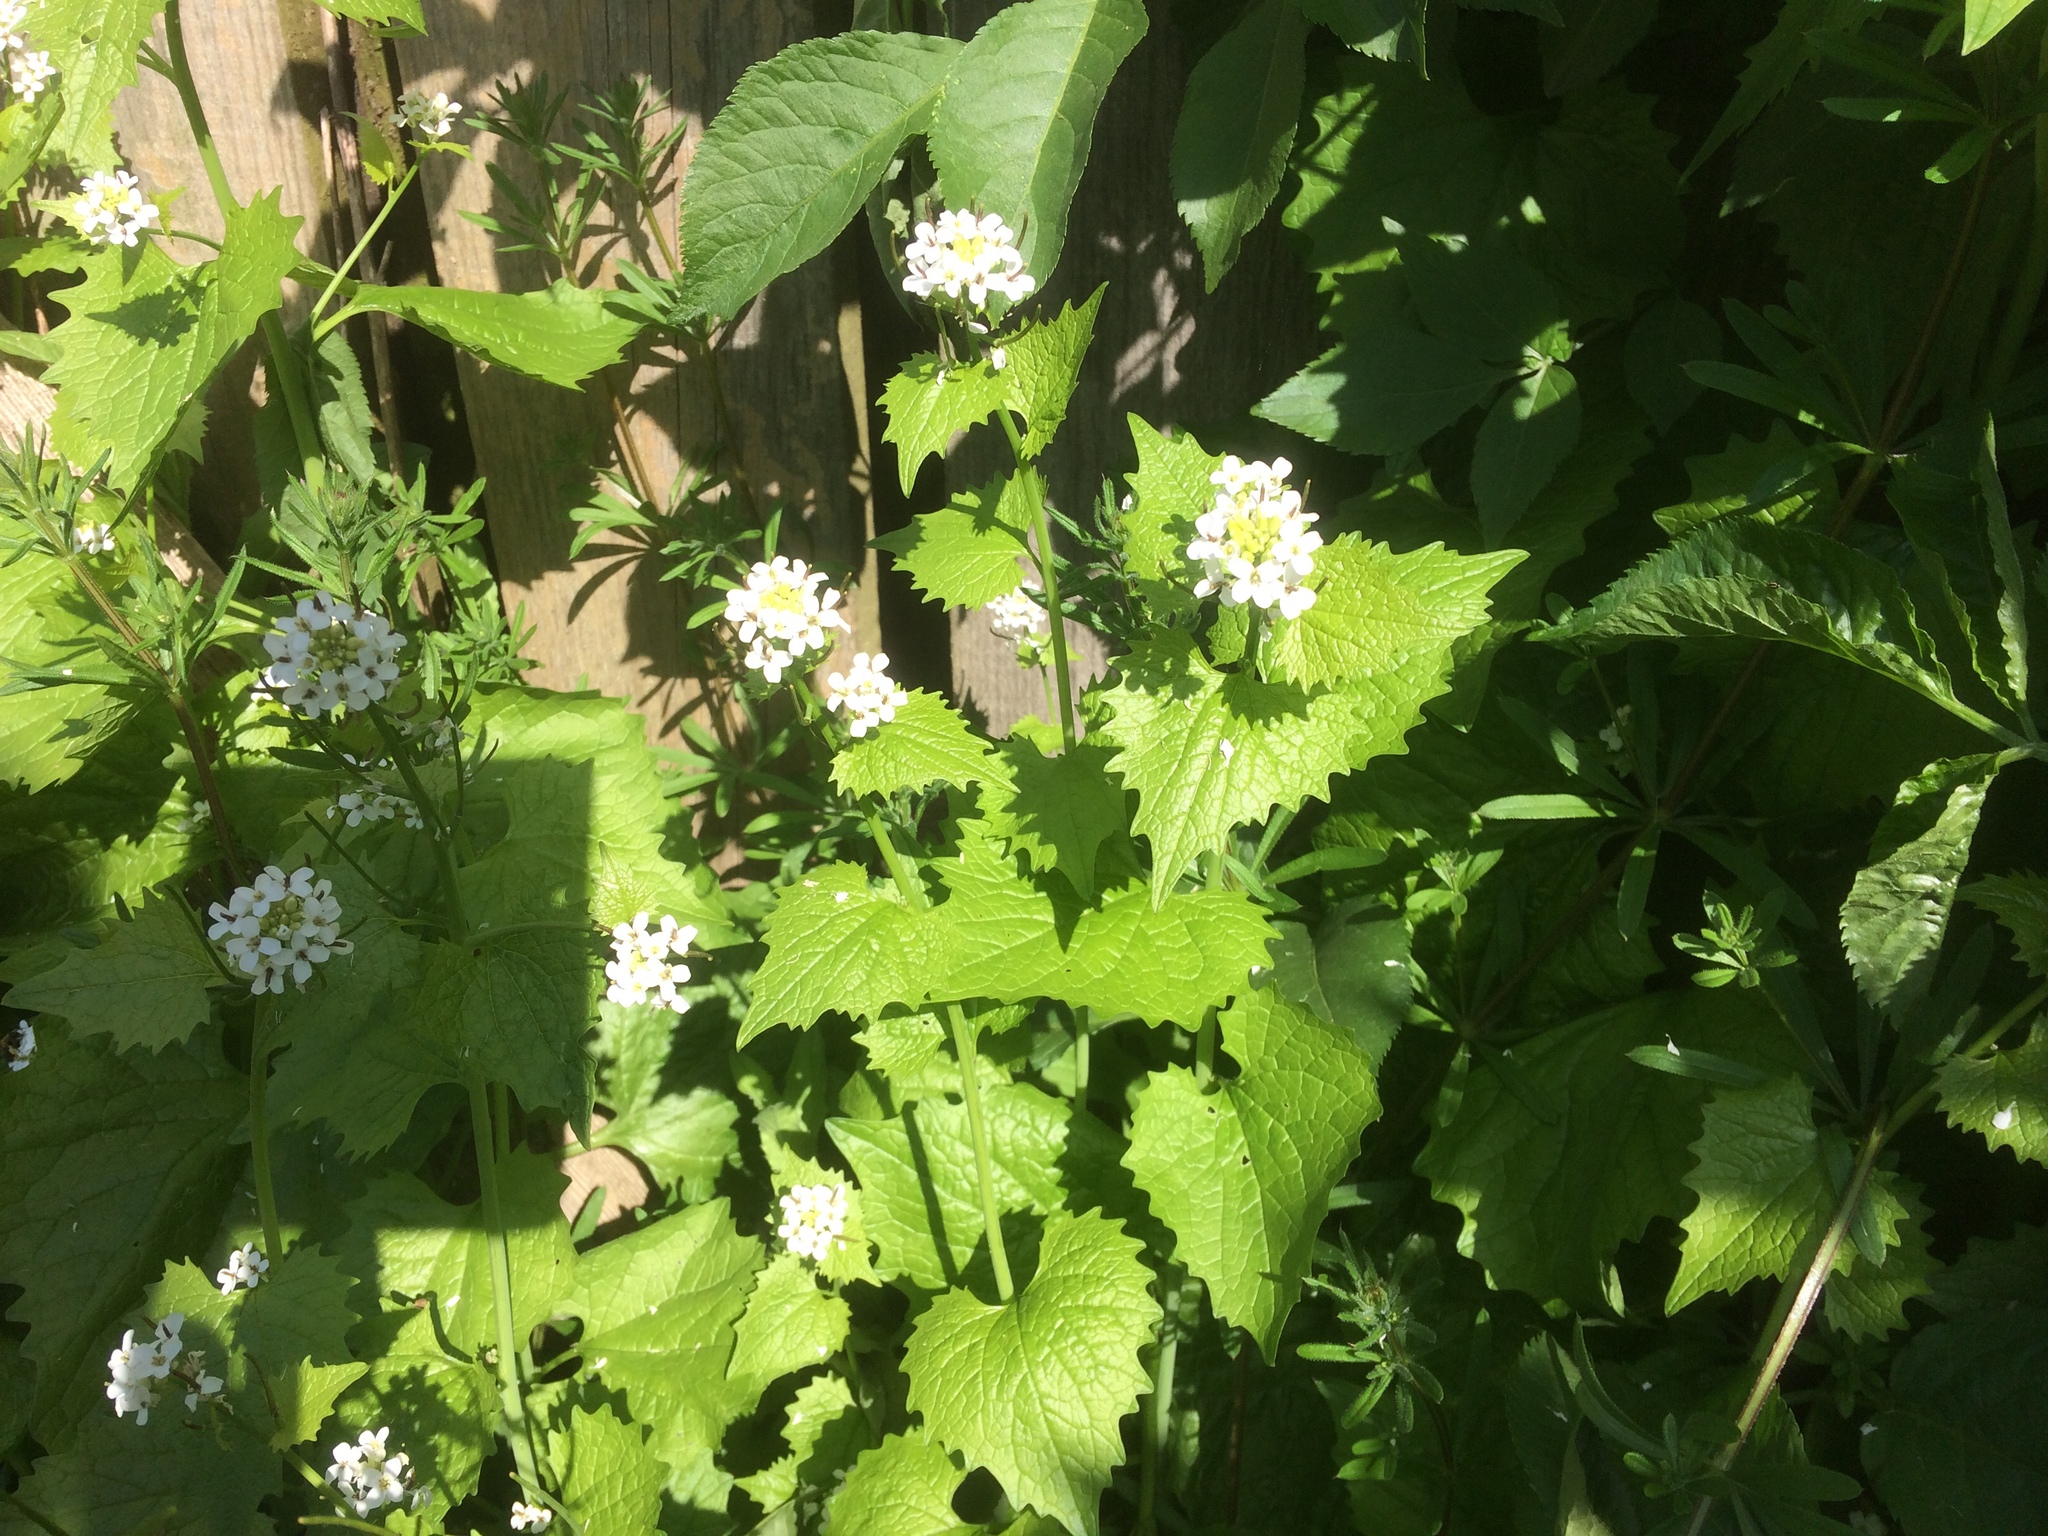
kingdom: Plantae
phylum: Tracheophyta
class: Magnoliopsida
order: Brassicales
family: Brassicaceae
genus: Alliaria
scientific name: Alliaria petiolata
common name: Garlic mustard
